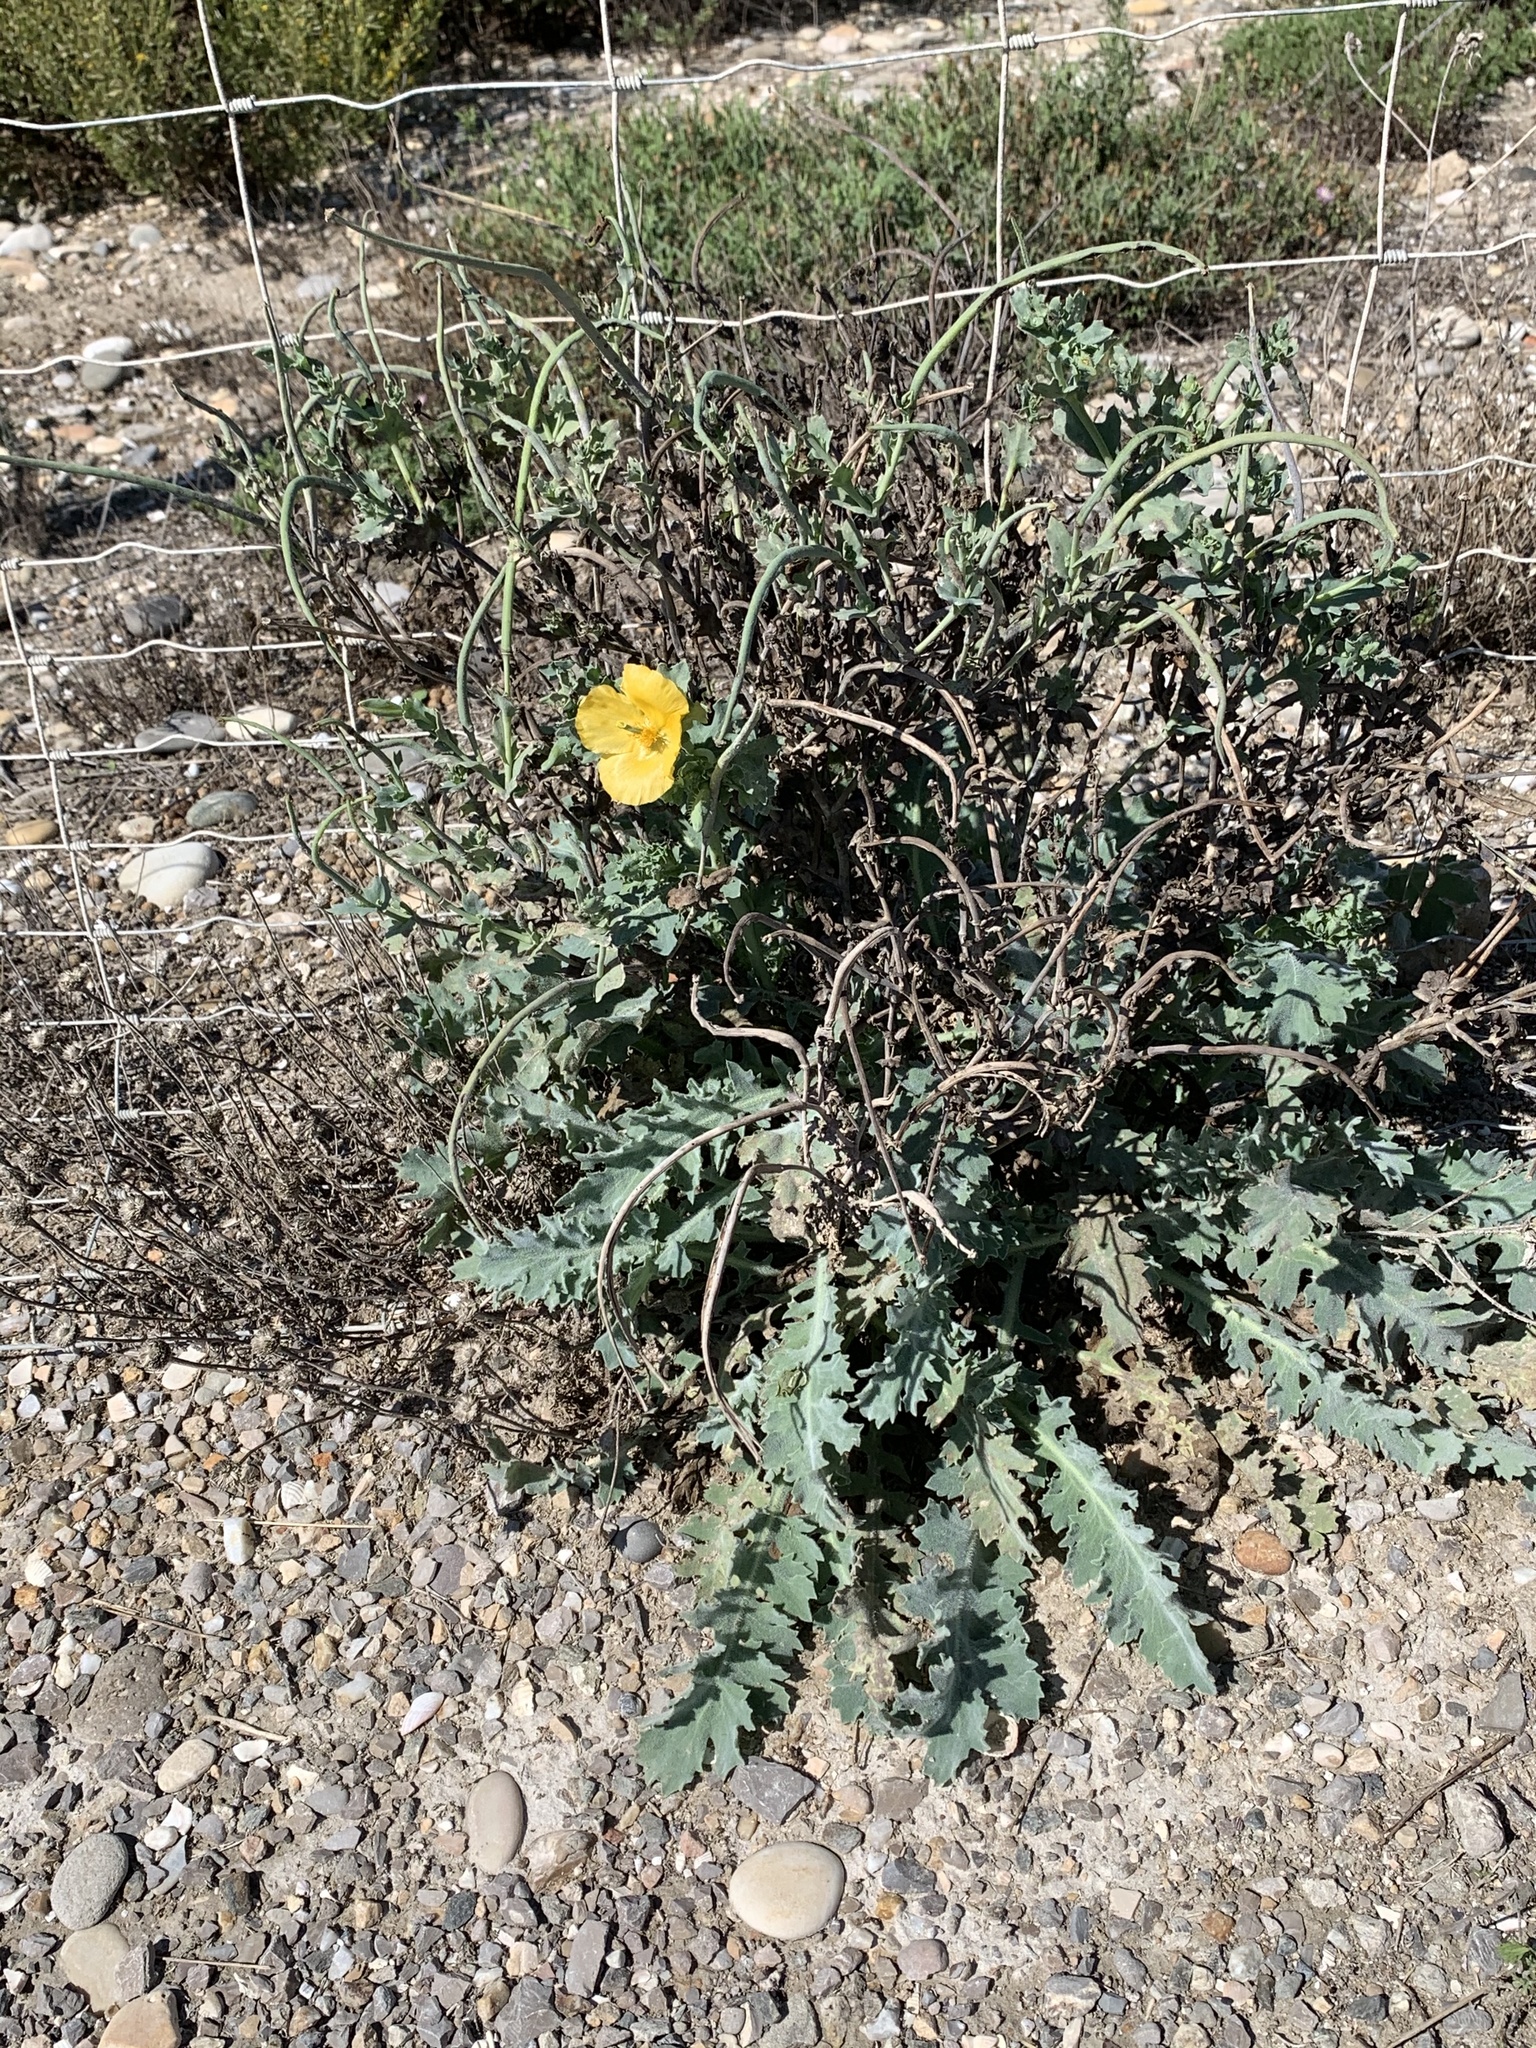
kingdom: Plantae
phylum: Tracheophyta
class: Magnoliopsida
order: Ranunculales
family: Papaveraceae
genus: Glaucium
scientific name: Glaucium flavum
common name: Yellow horned-poppy
